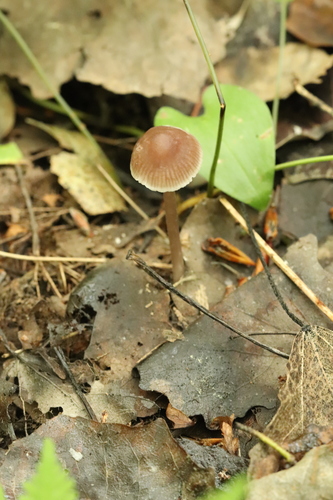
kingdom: Fungi
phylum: Basidiomycota
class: Agaricomycetes
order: Agaricales
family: Mycenaceae
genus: Mycena
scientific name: Mycena pura
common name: Lilac bonnet
